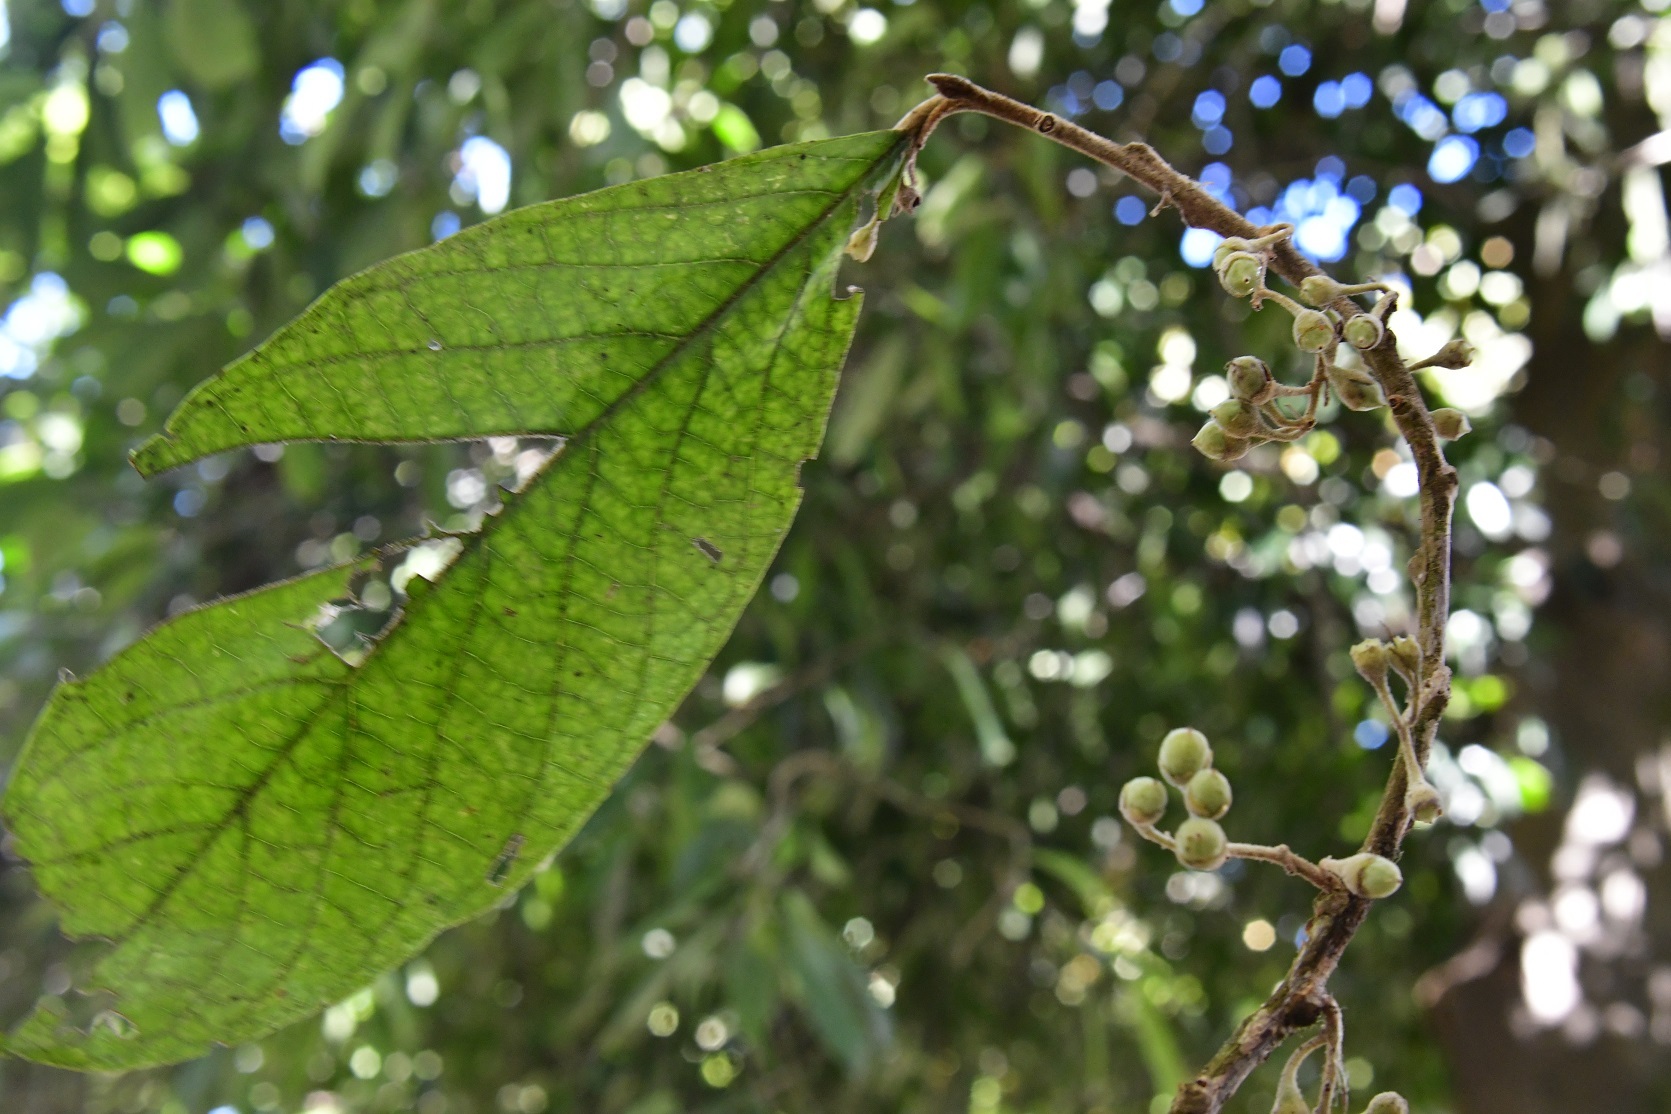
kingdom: Plantae
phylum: Tracheophyta
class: Magnoliopsida
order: Ericales
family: Styracaceae
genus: Styrax
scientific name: Styrax magnus
